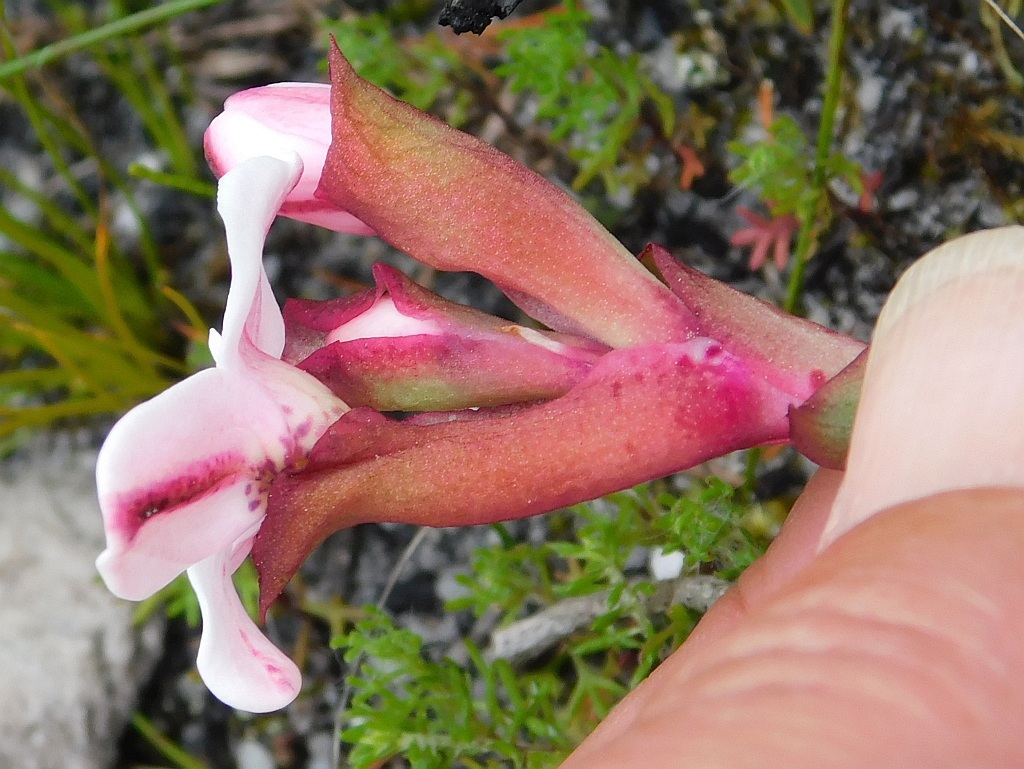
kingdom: Plantae
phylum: Tracheophyta
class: Liliopsida
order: Asparagales
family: Orchidaceae
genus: Disa
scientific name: Disa fasciata
